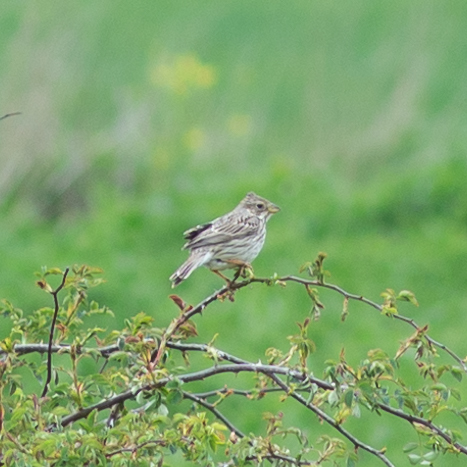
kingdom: Animalia
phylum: Chordata
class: Aves
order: Passeriformes
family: Emberizidae
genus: Emberiza
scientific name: Emberiza calandra
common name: Corn bunting
